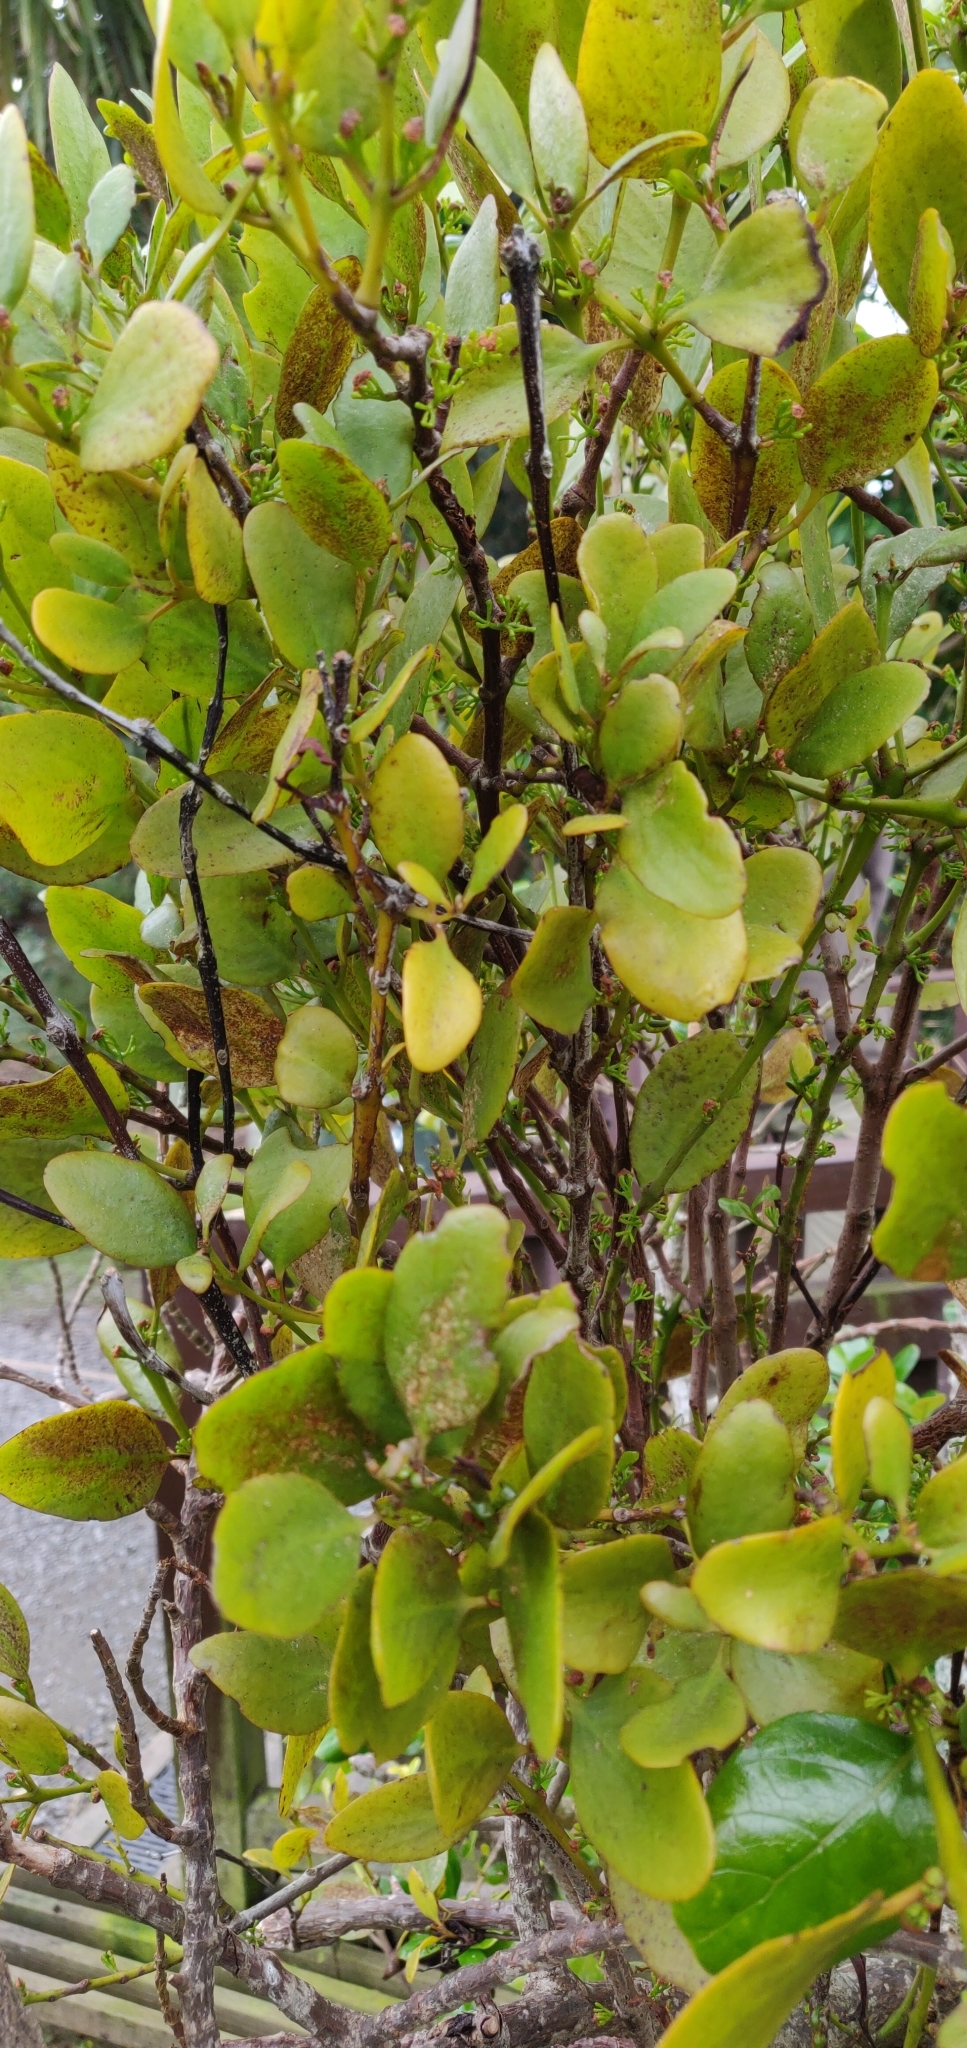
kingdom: Plantae
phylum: Tracheophyta
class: Magnoliopsida
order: Santalales
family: Loranthaceae
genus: Ileostylus
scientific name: Ileostylus micranthus
